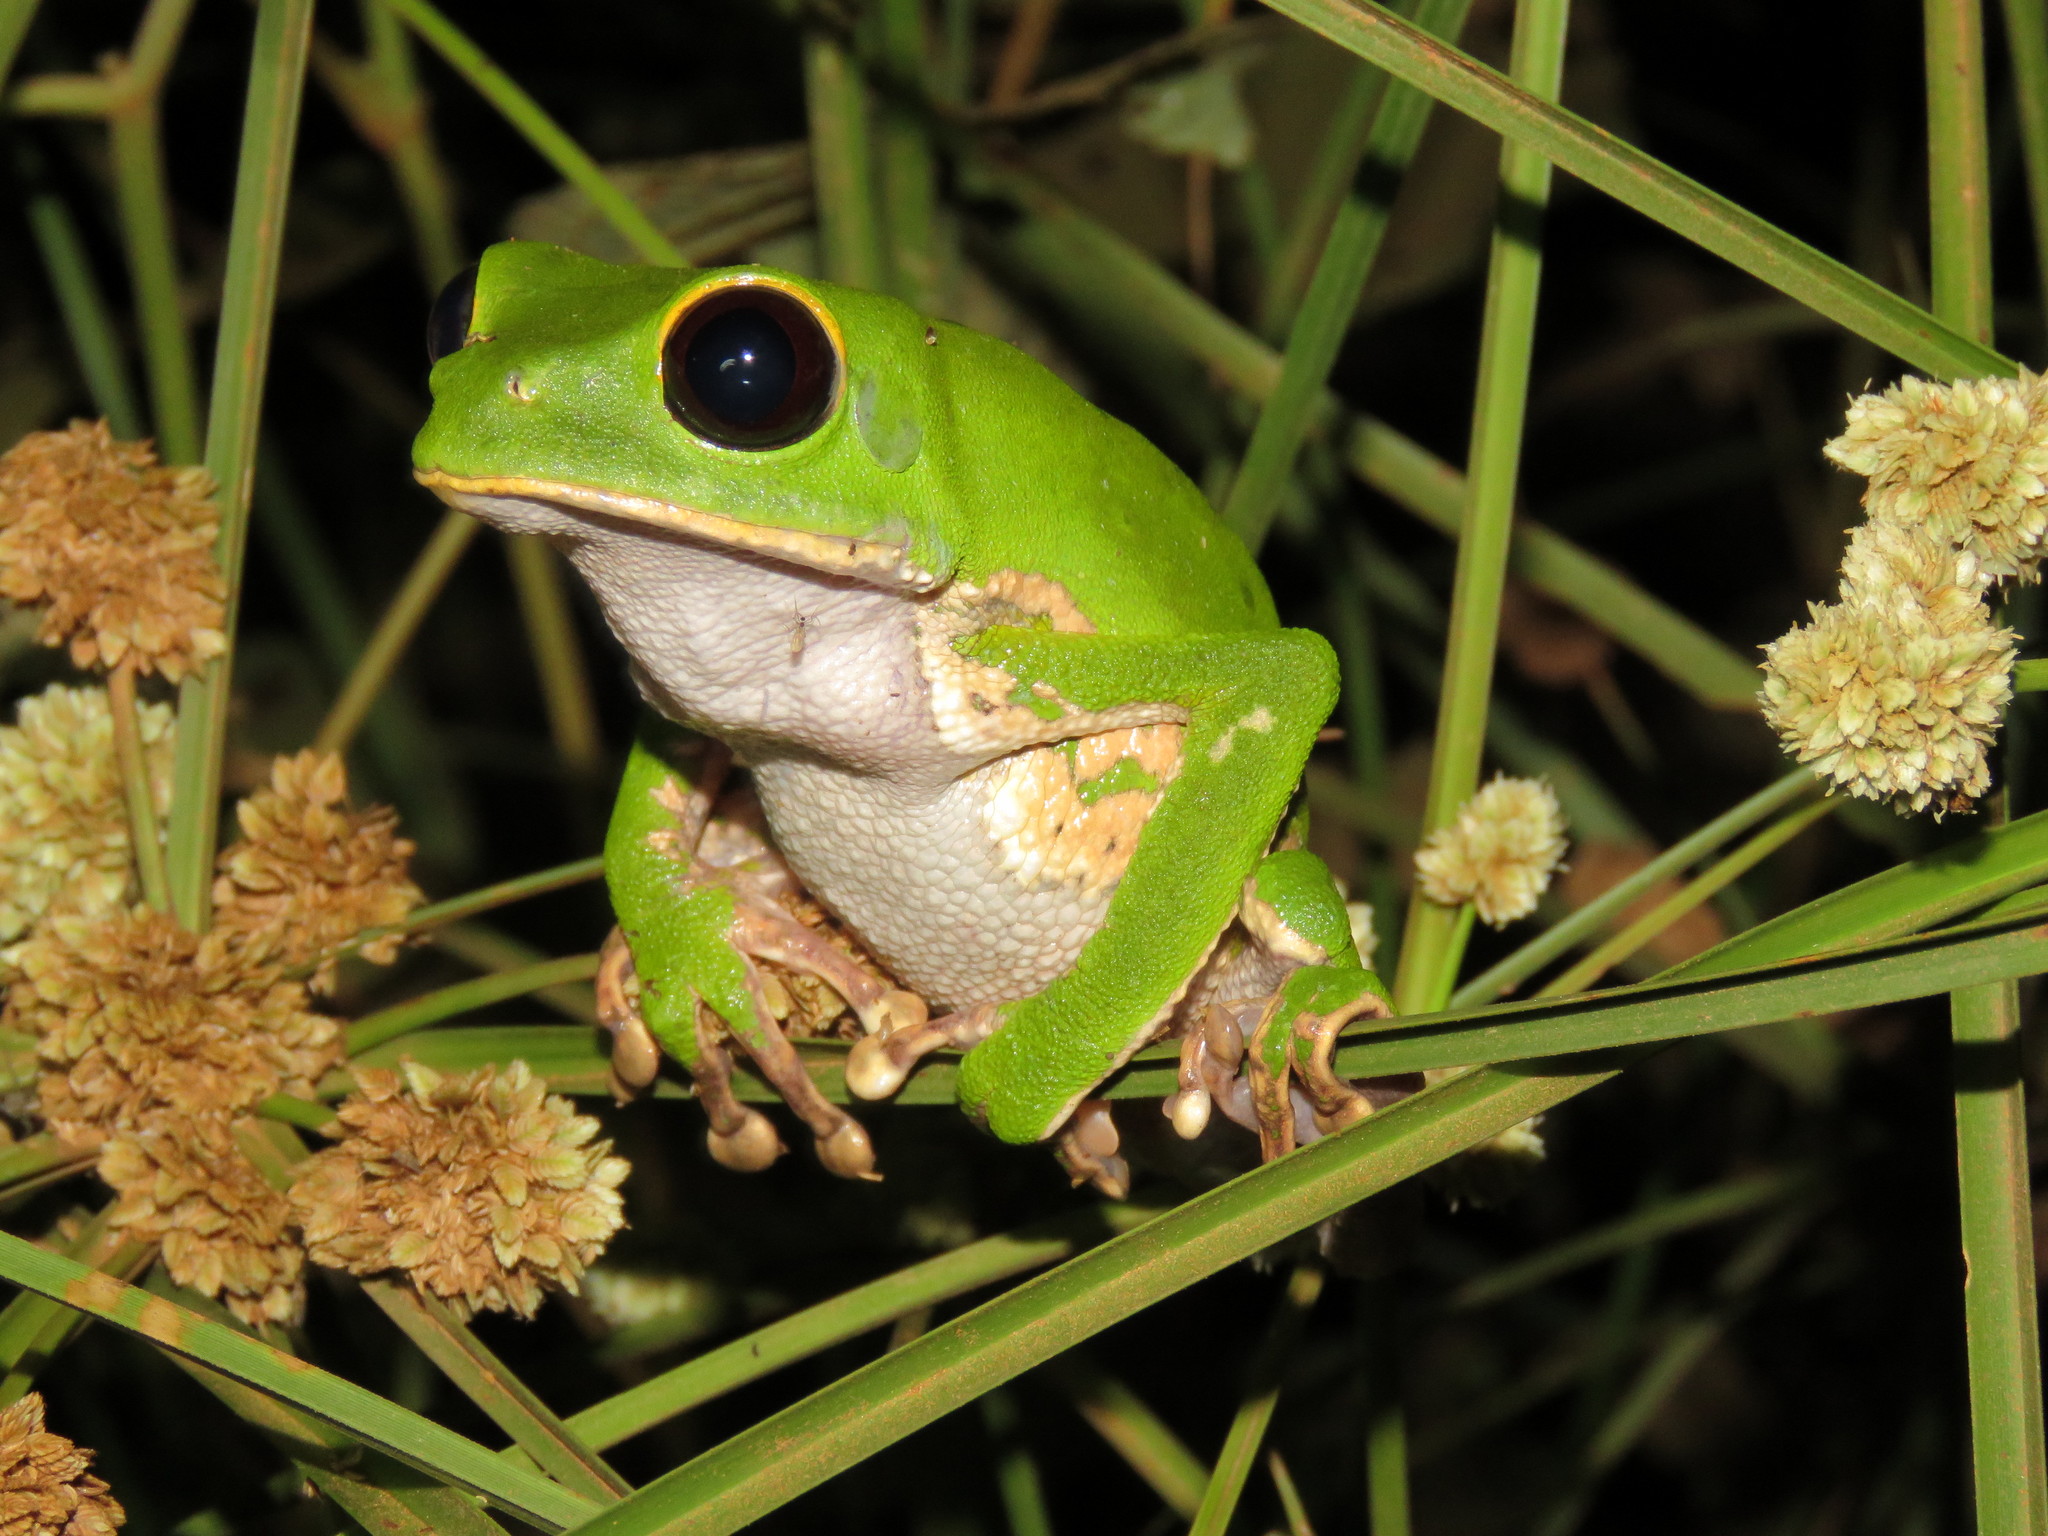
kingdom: Animalia
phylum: Chordata
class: Amphibia
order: Anura
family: Phyllomedusidae
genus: Phyllomedusa
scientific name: Phyllomedusa camba
